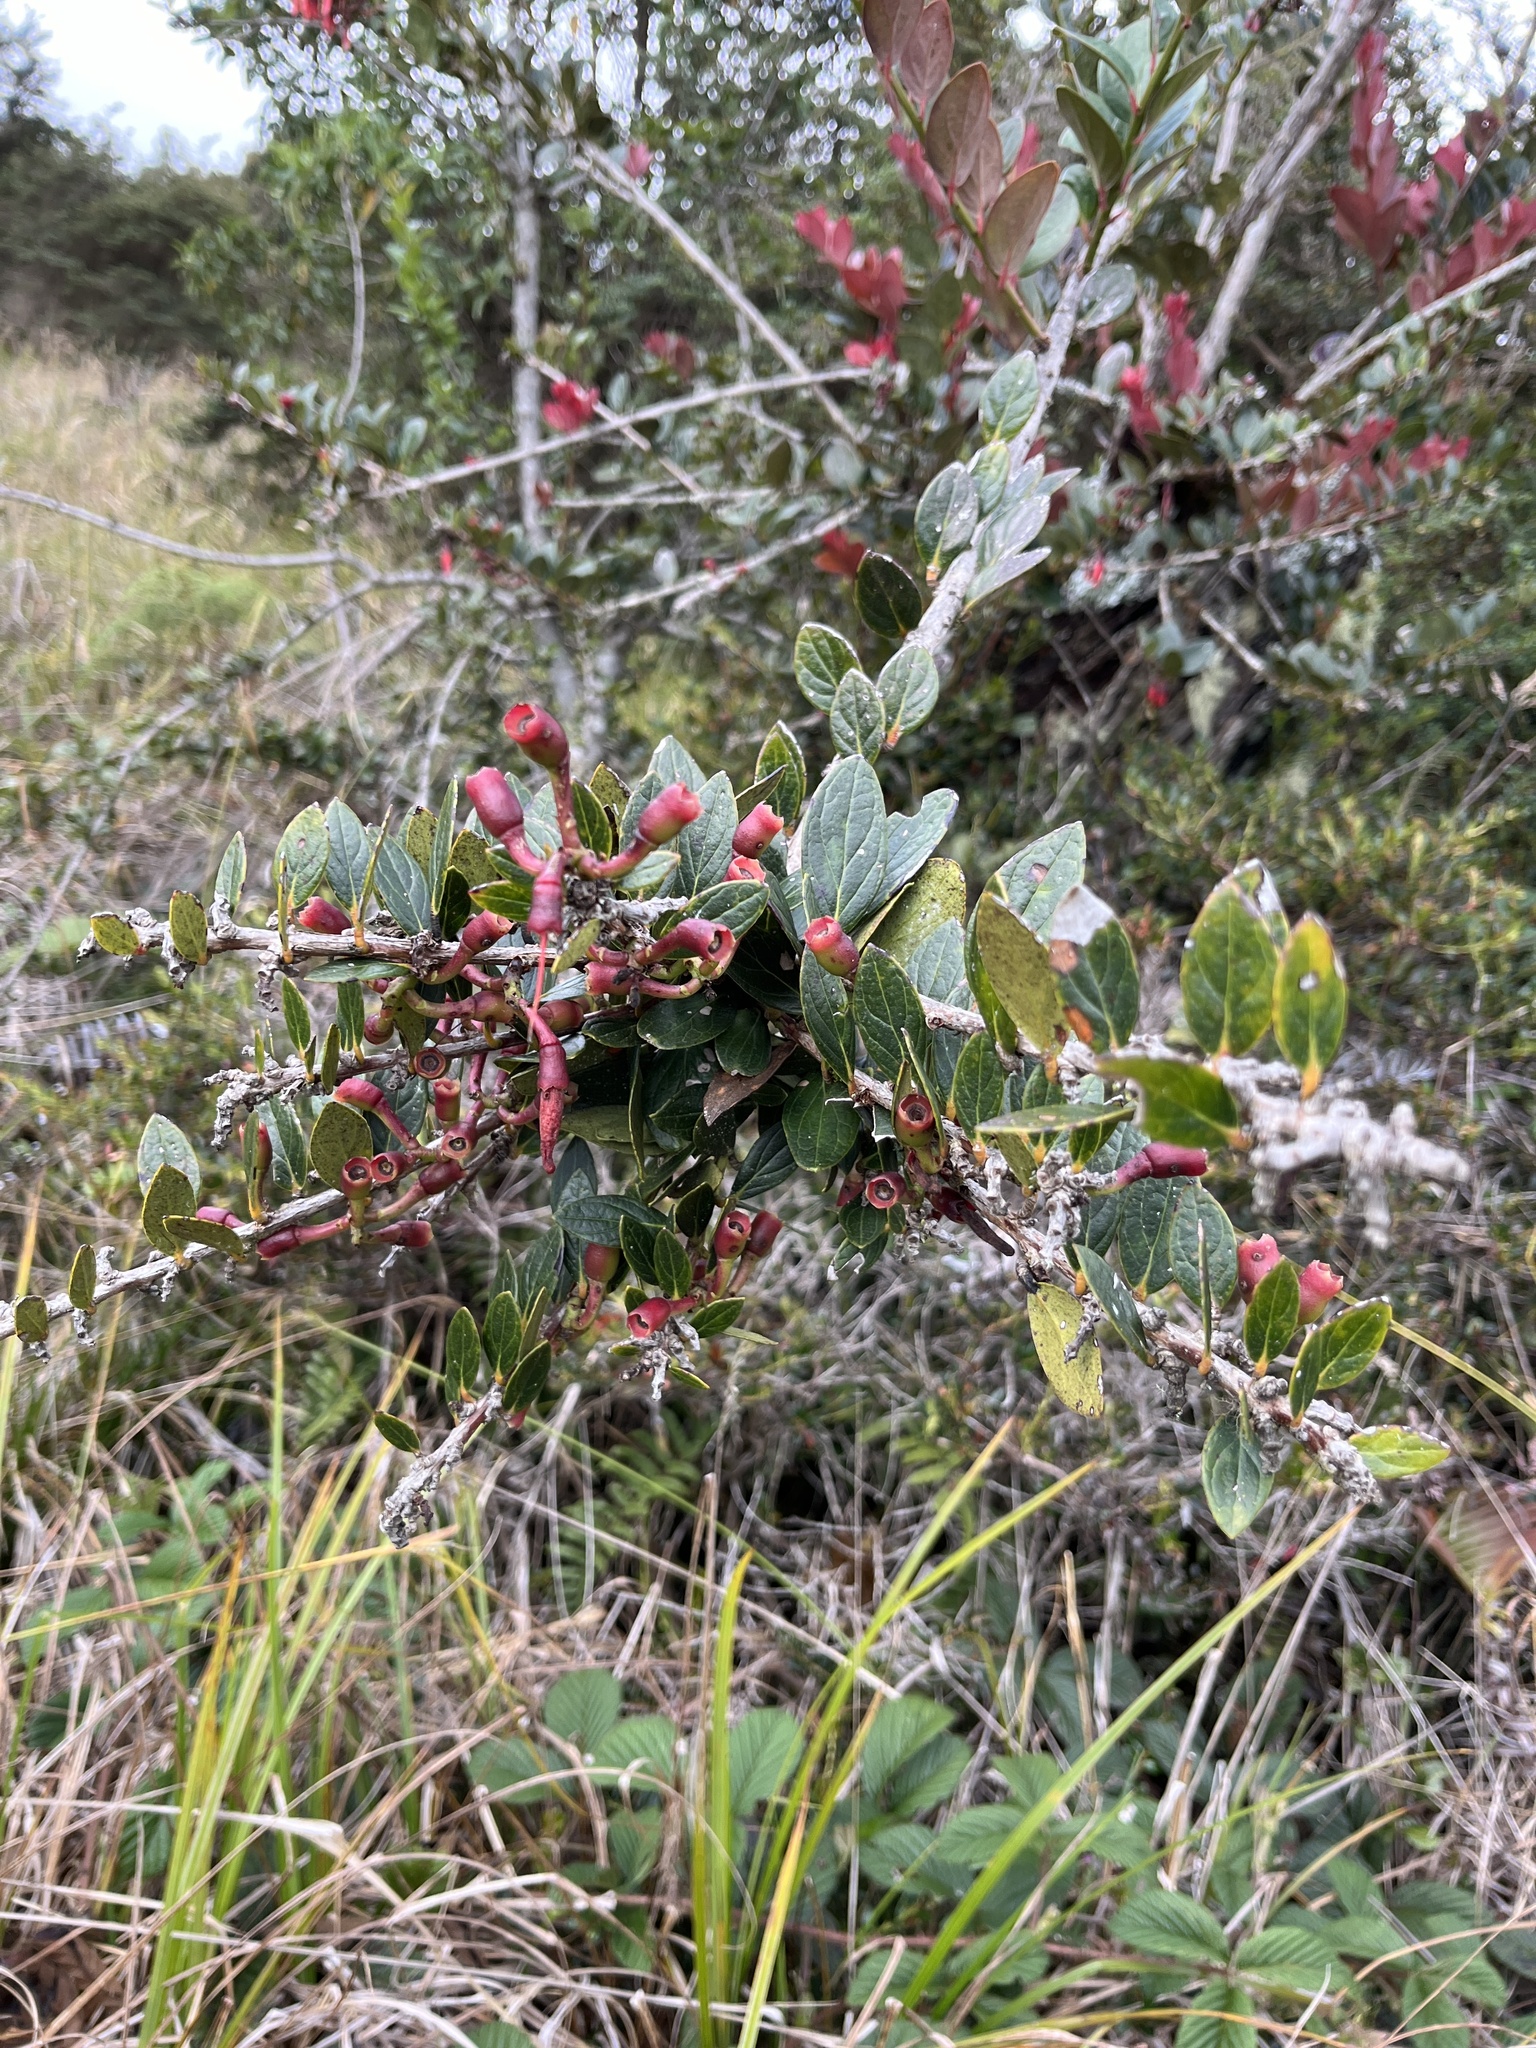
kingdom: Plantae
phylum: Tracheophyta
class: Magnoliopsida
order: Ericales
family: Ericaceae
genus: Macleania
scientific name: Macleania rupestris
